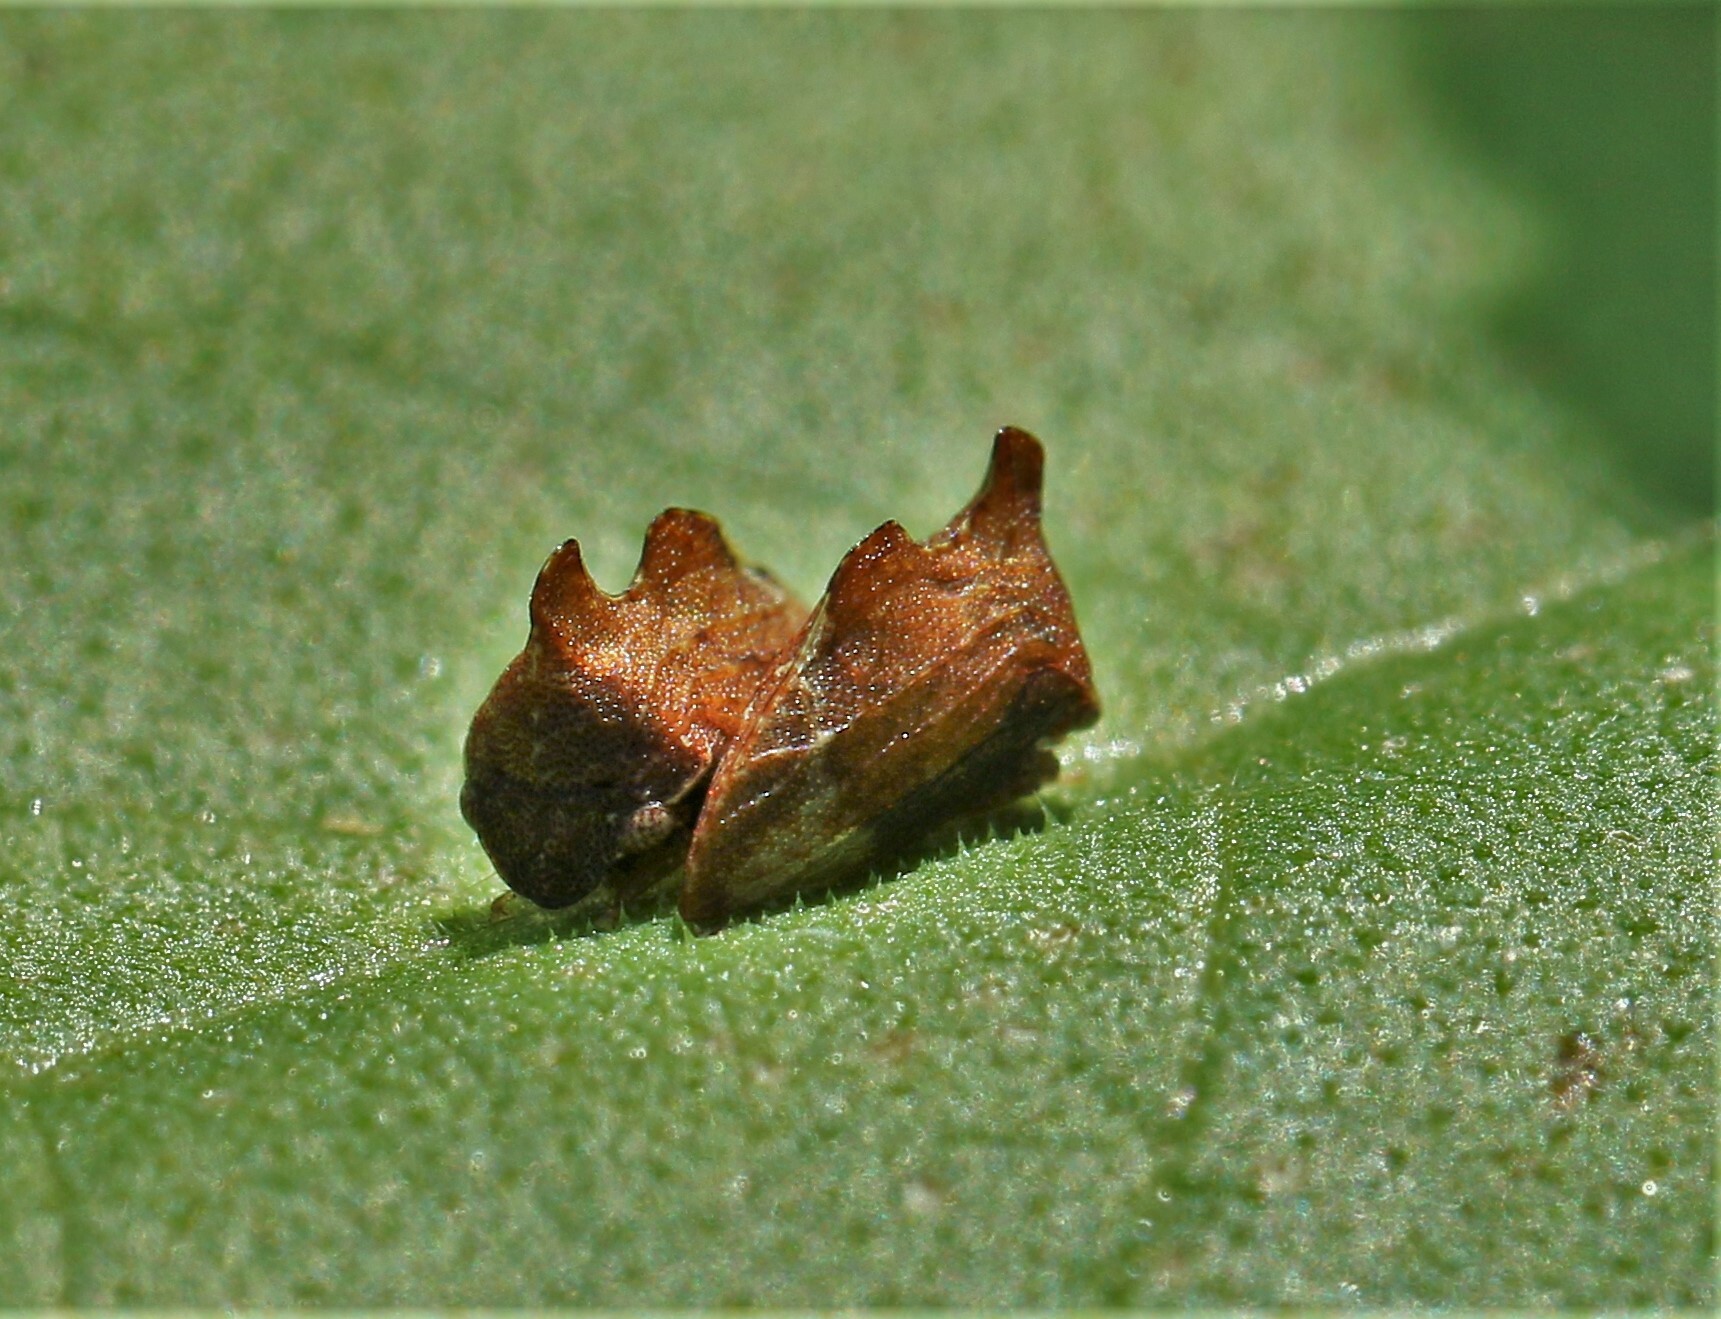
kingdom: Animalia
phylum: Arthropoda
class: Insecta
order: Hemiptera
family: Membracidae
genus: Entylia
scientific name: Entylia carinata
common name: Keeled treehopper
